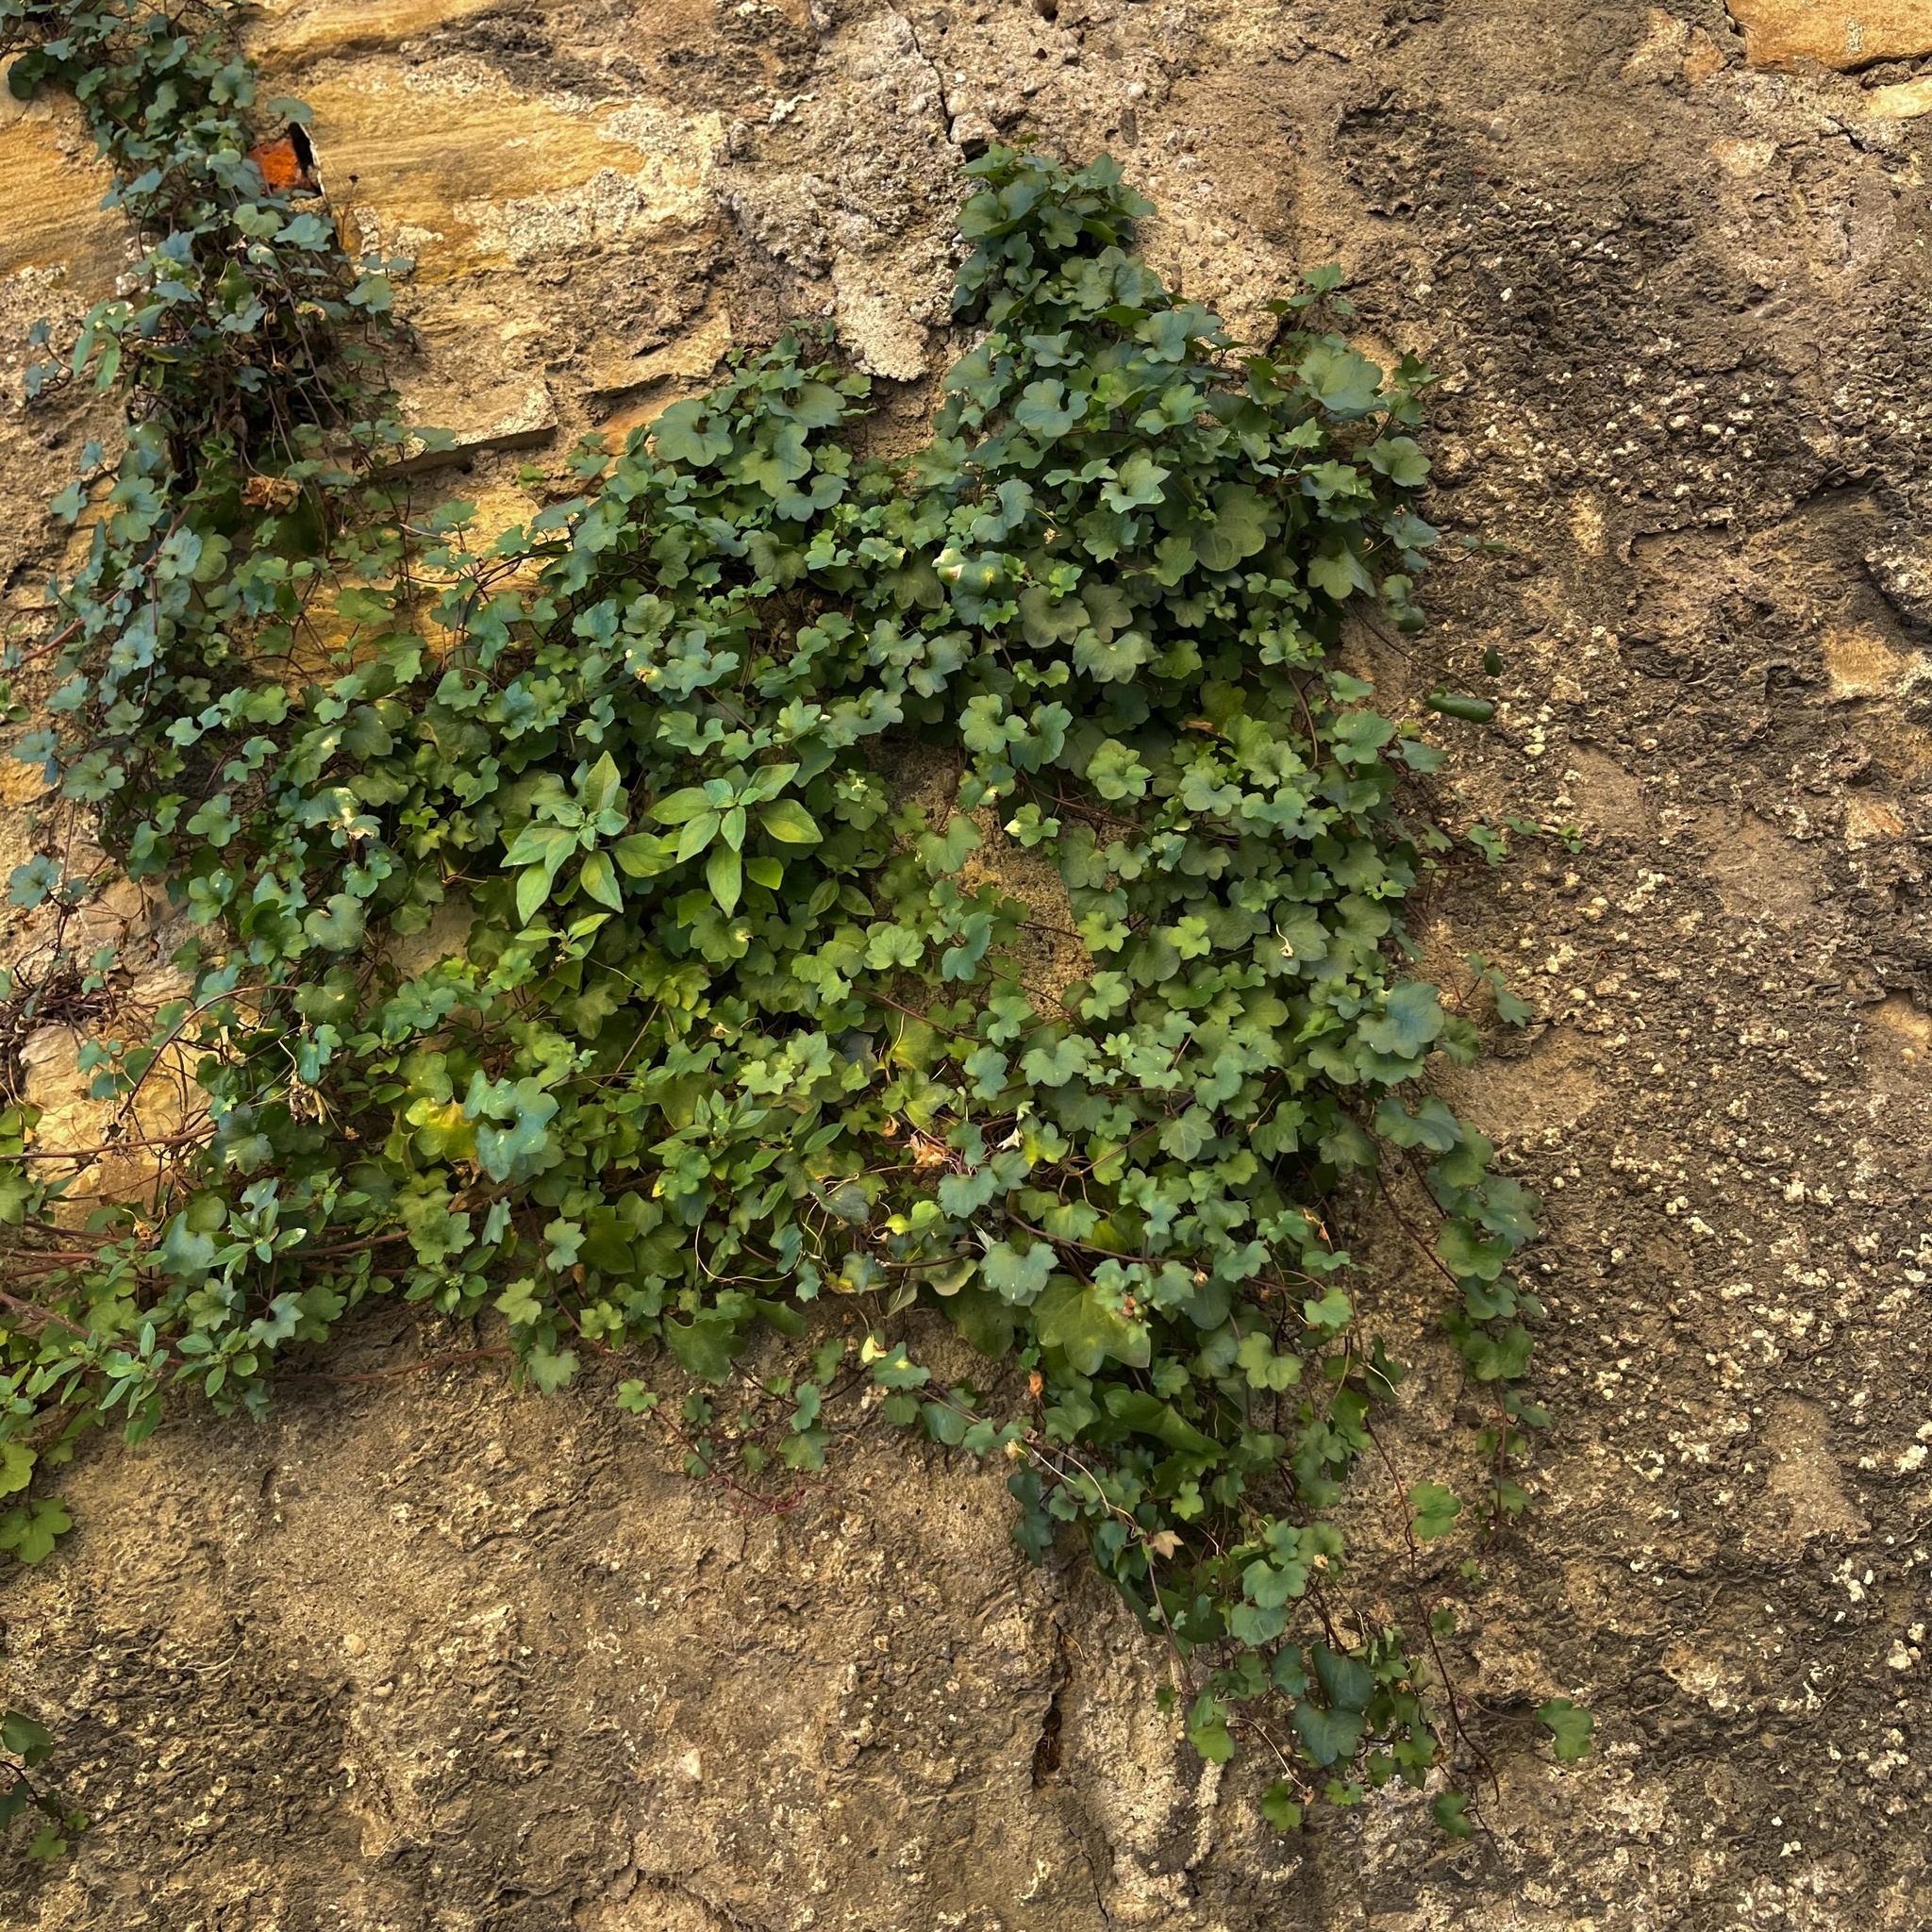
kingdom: Plantae
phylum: Tracheophyta
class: Magnoliopsida
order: Lamiales
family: Plantaginaceae
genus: Cymbalaria
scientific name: Cymbalaria muralis
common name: Ivy-leaved toadflax
